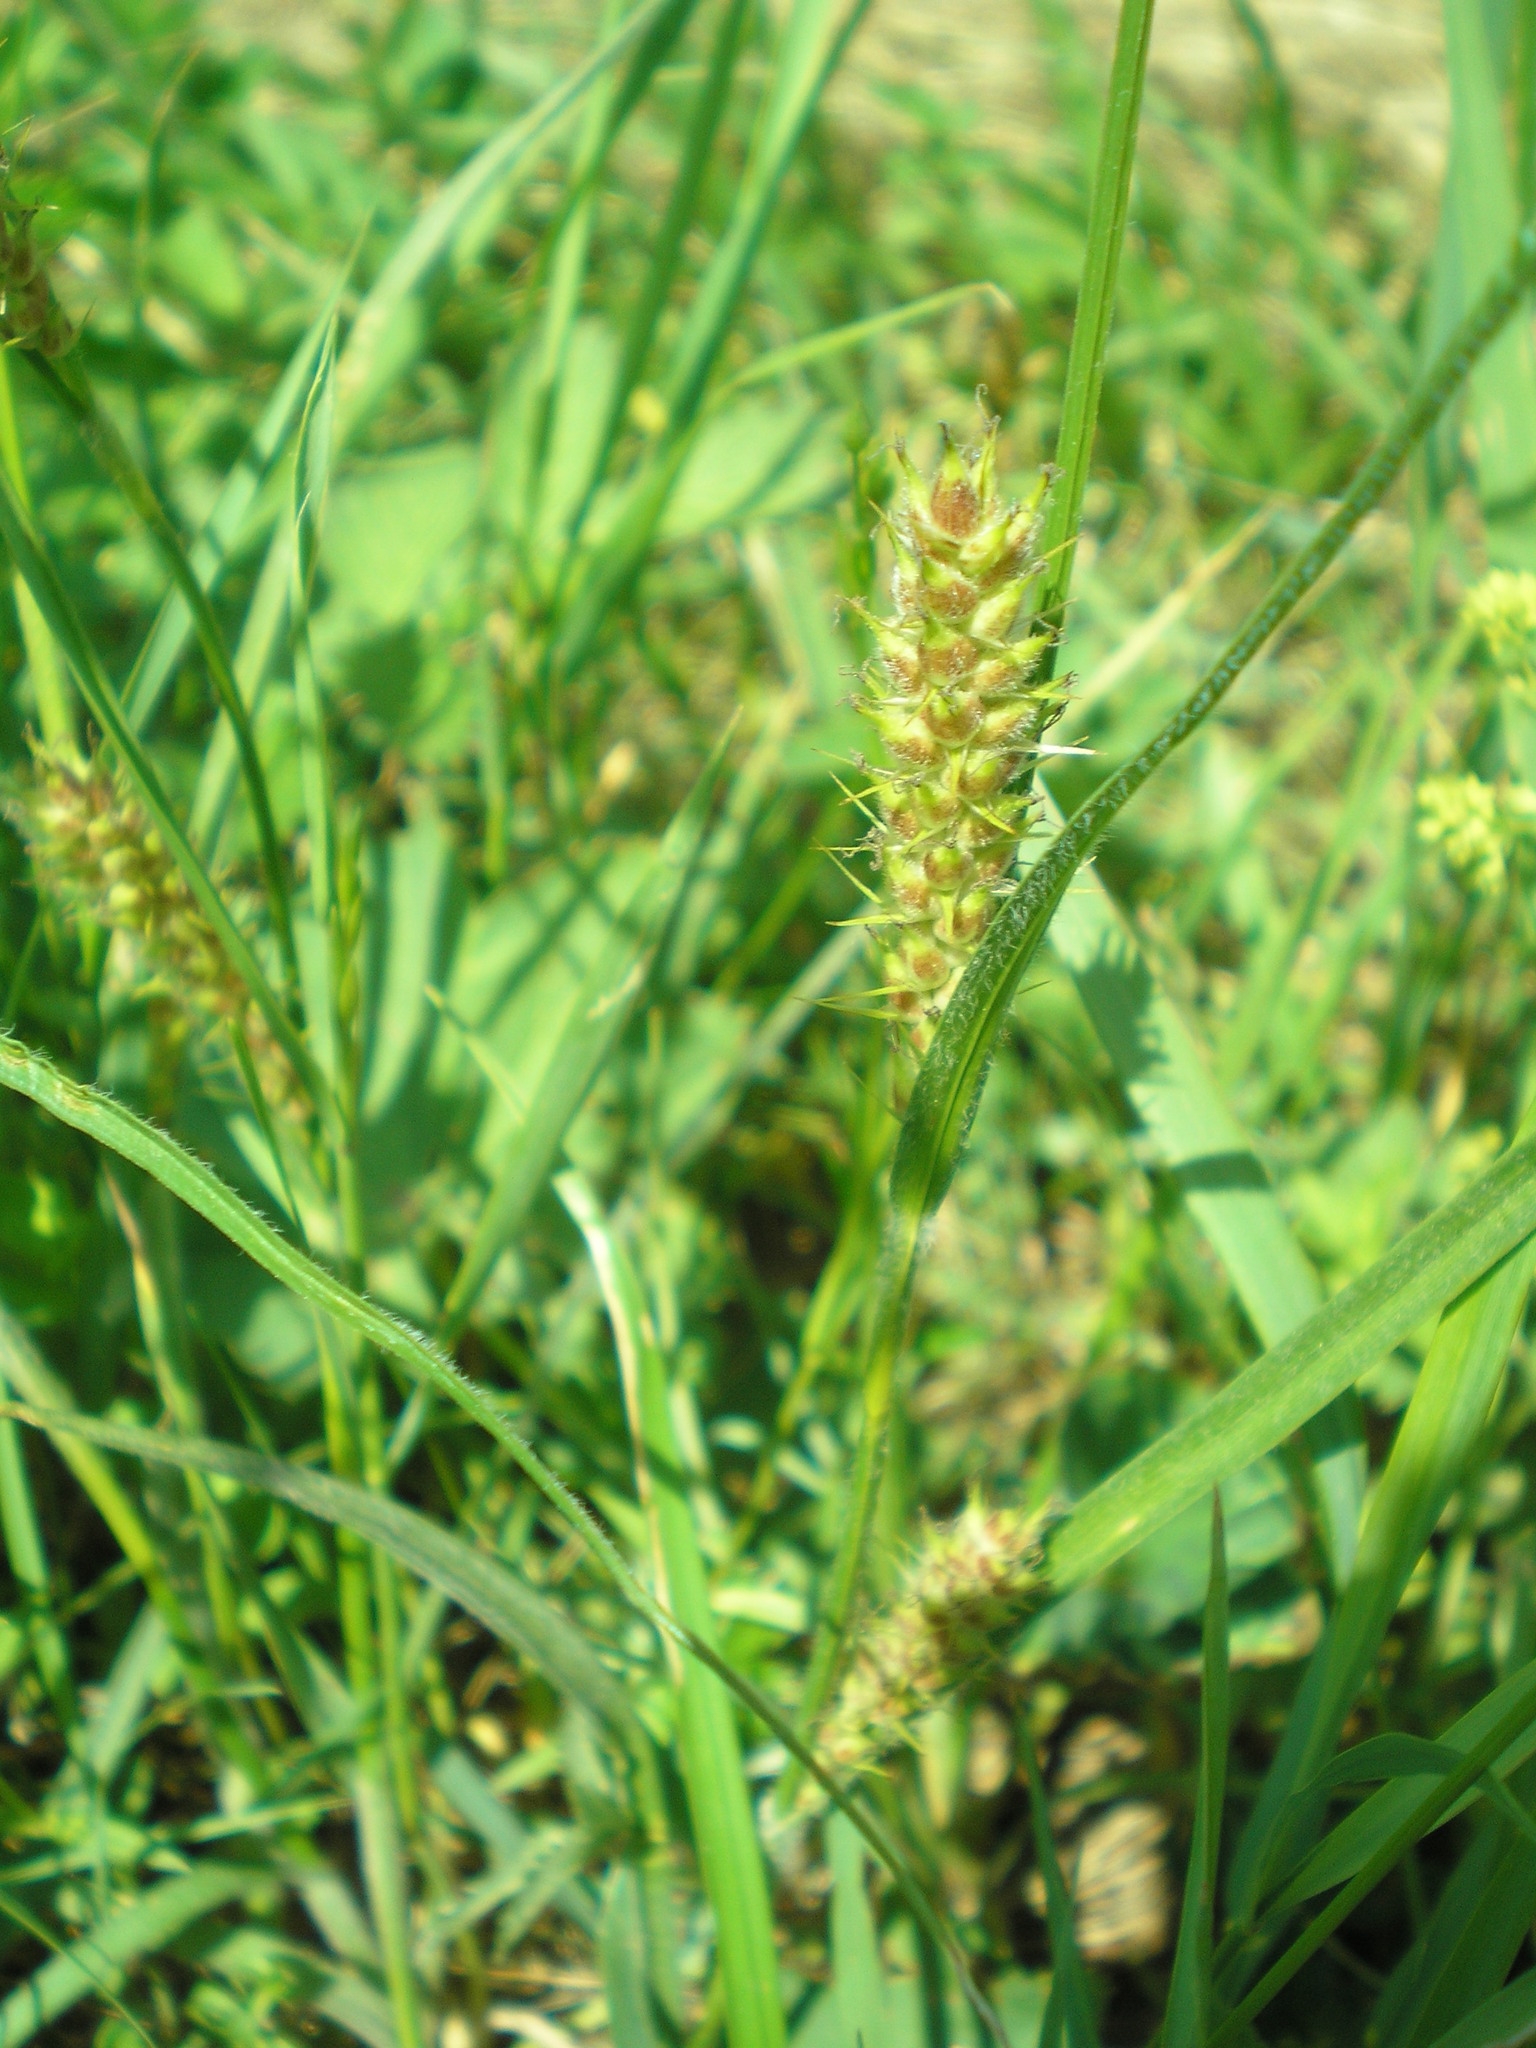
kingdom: Plantae
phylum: Tracheophyta
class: Liliopsida
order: Poales
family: Cyperaceae
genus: Carex
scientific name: Carex hirta
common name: Hairy sedge
